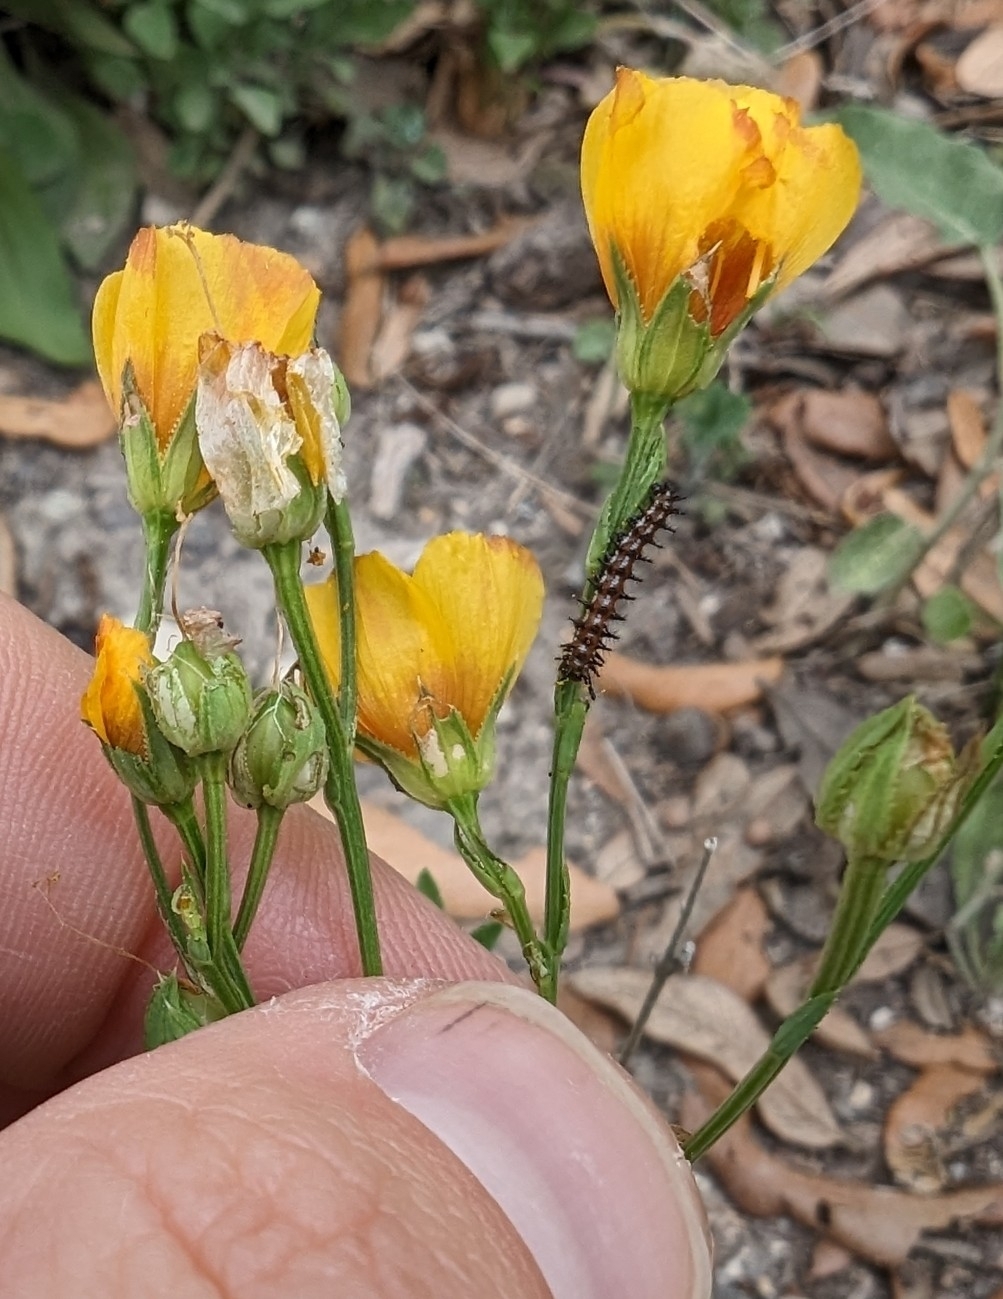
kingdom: Animalia
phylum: Arthropoda
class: Insecta
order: Lepidoptera
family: Nymphalidae
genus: Euptoieta
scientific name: Euptoieta claudia
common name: Variegated fritillary
